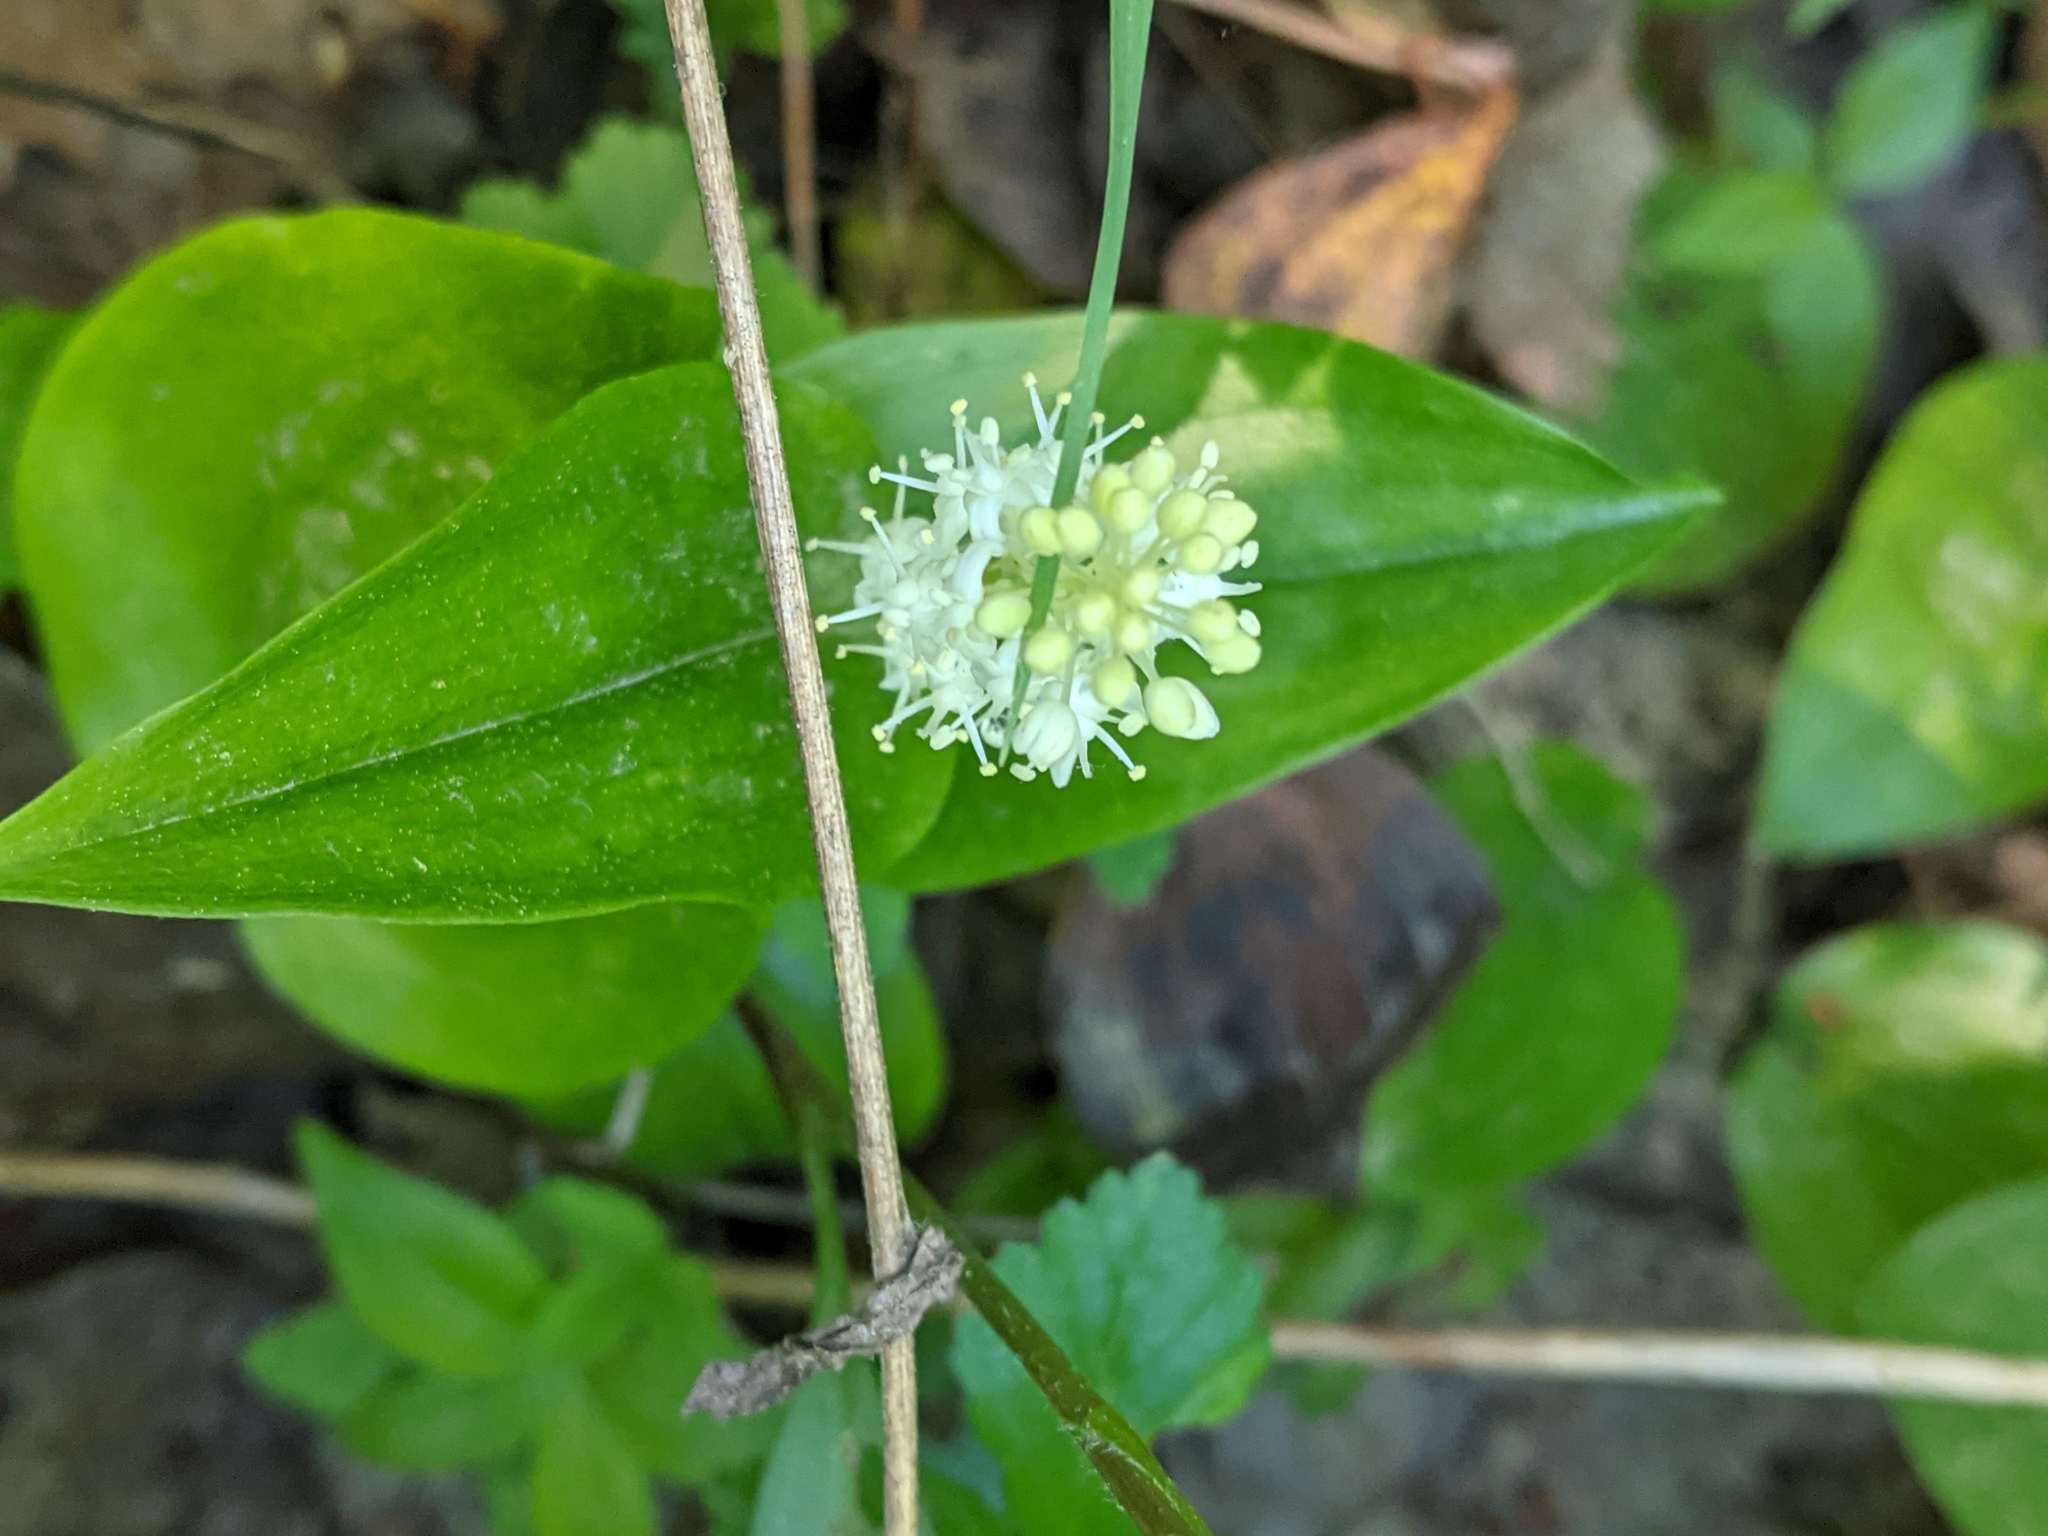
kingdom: Plantae
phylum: Tracheophyta
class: Liliopsida
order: Asparagales
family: Asparagaceae
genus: Maianthemum
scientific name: Maianthemum canadense
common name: False lily-of-the-valley
